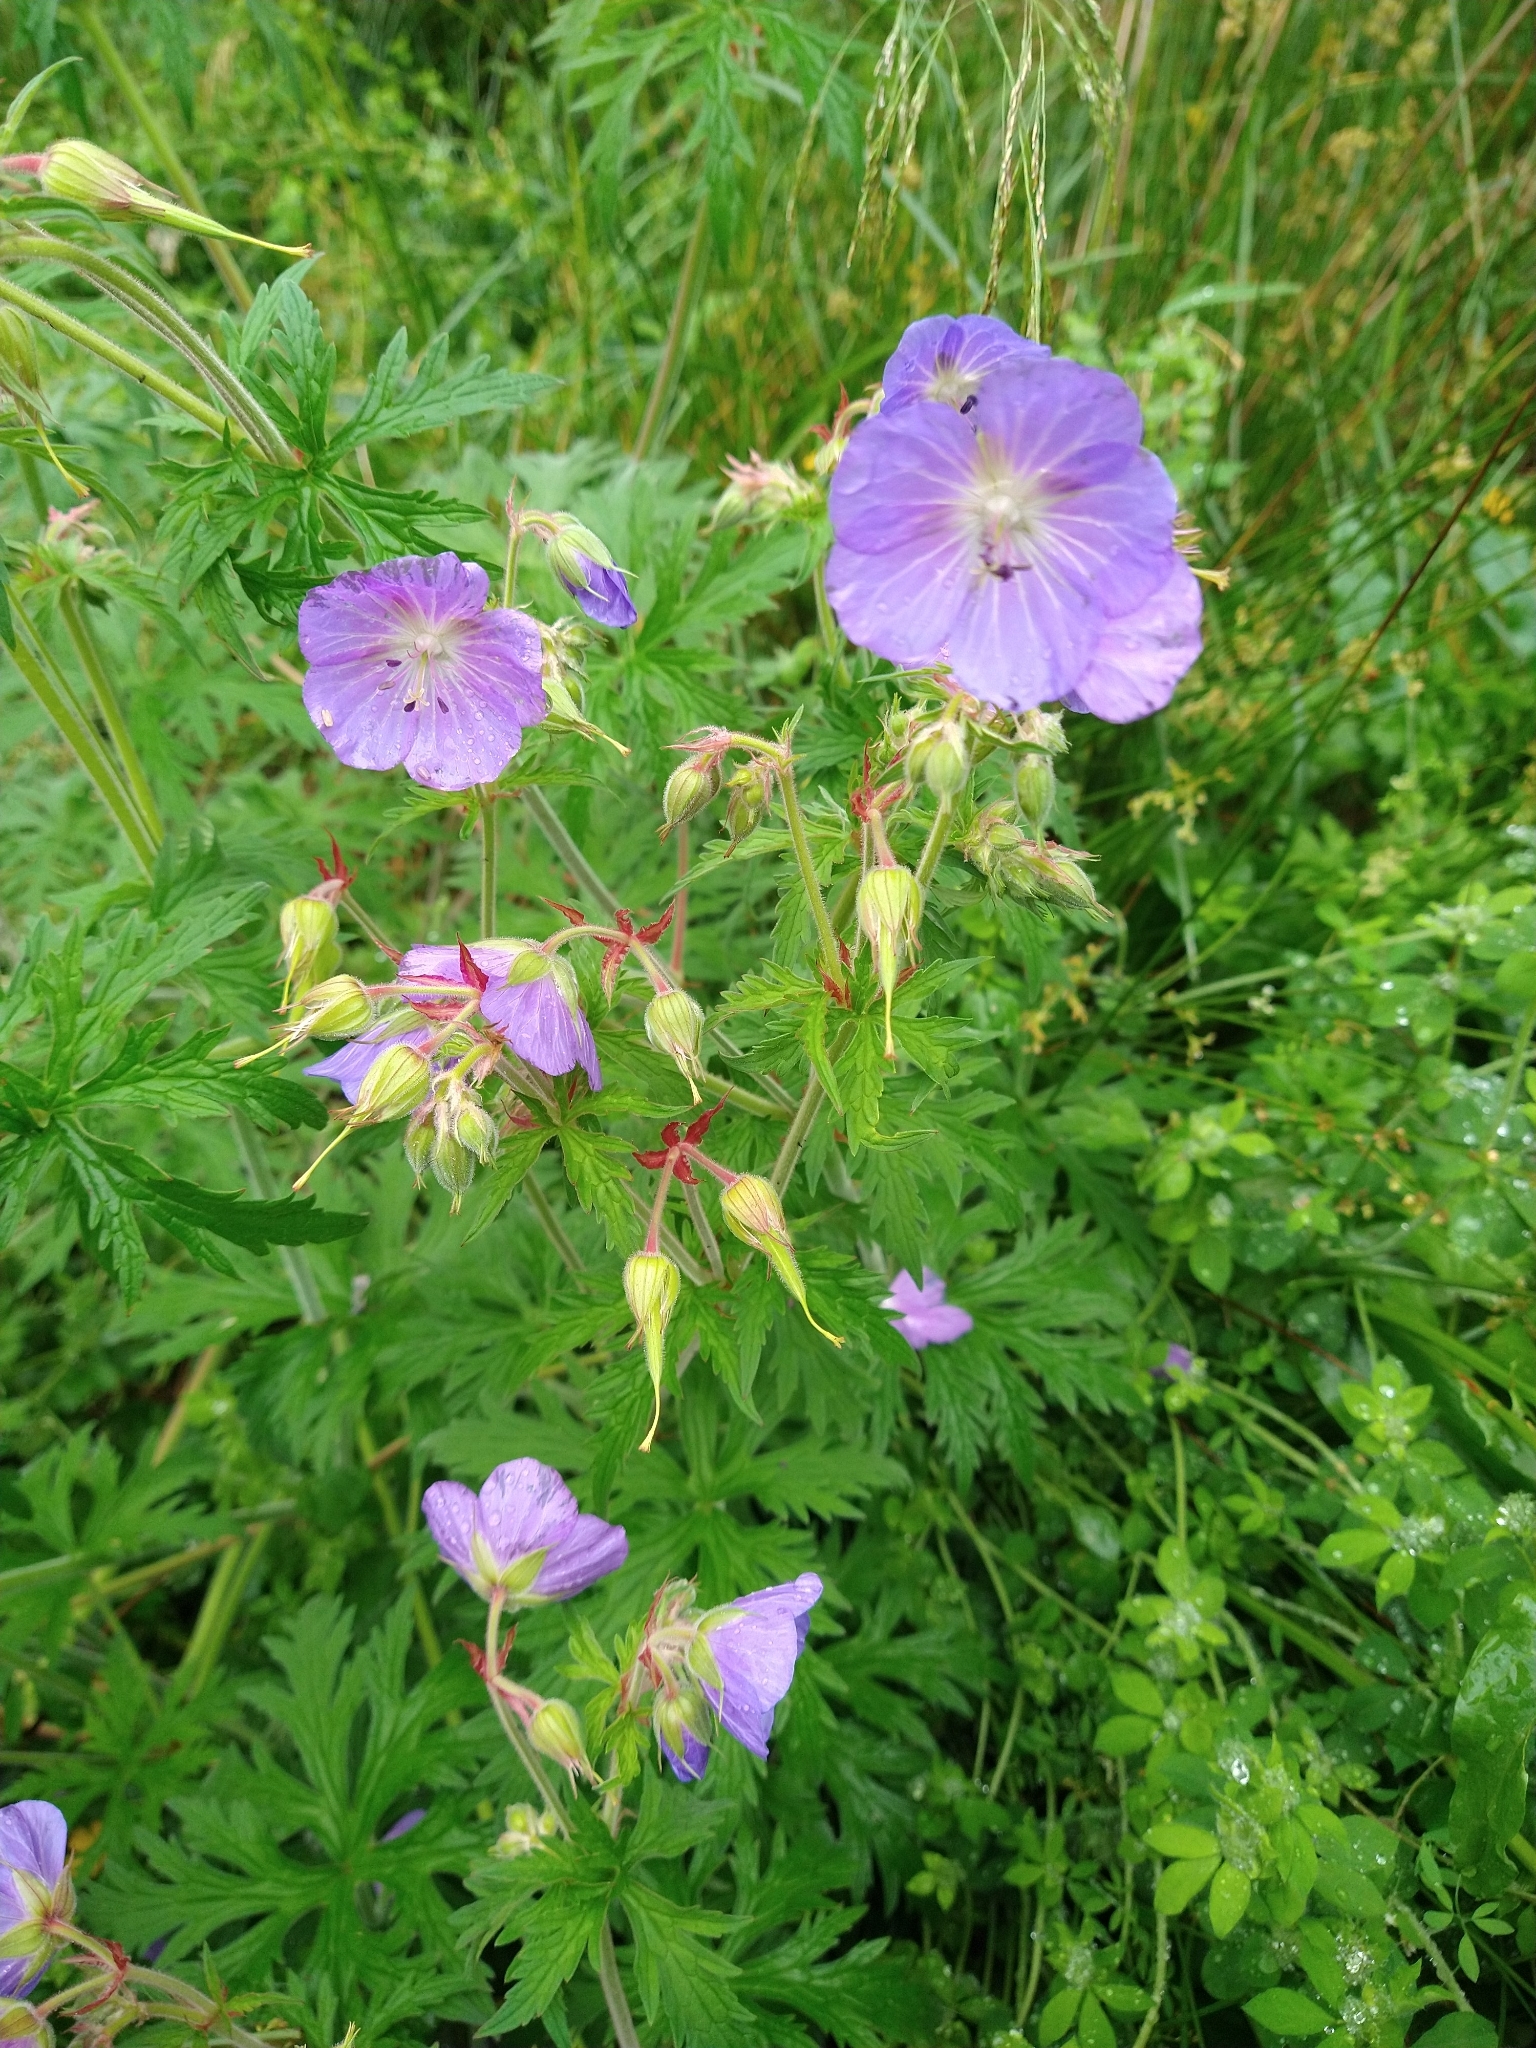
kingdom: Plantae
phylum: Tracheophyta
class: Magnoliopsida
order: Geraniales
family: Geraniaceae
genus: Geranium
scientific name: Geranium pratense
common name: Meadow crane's-bill
